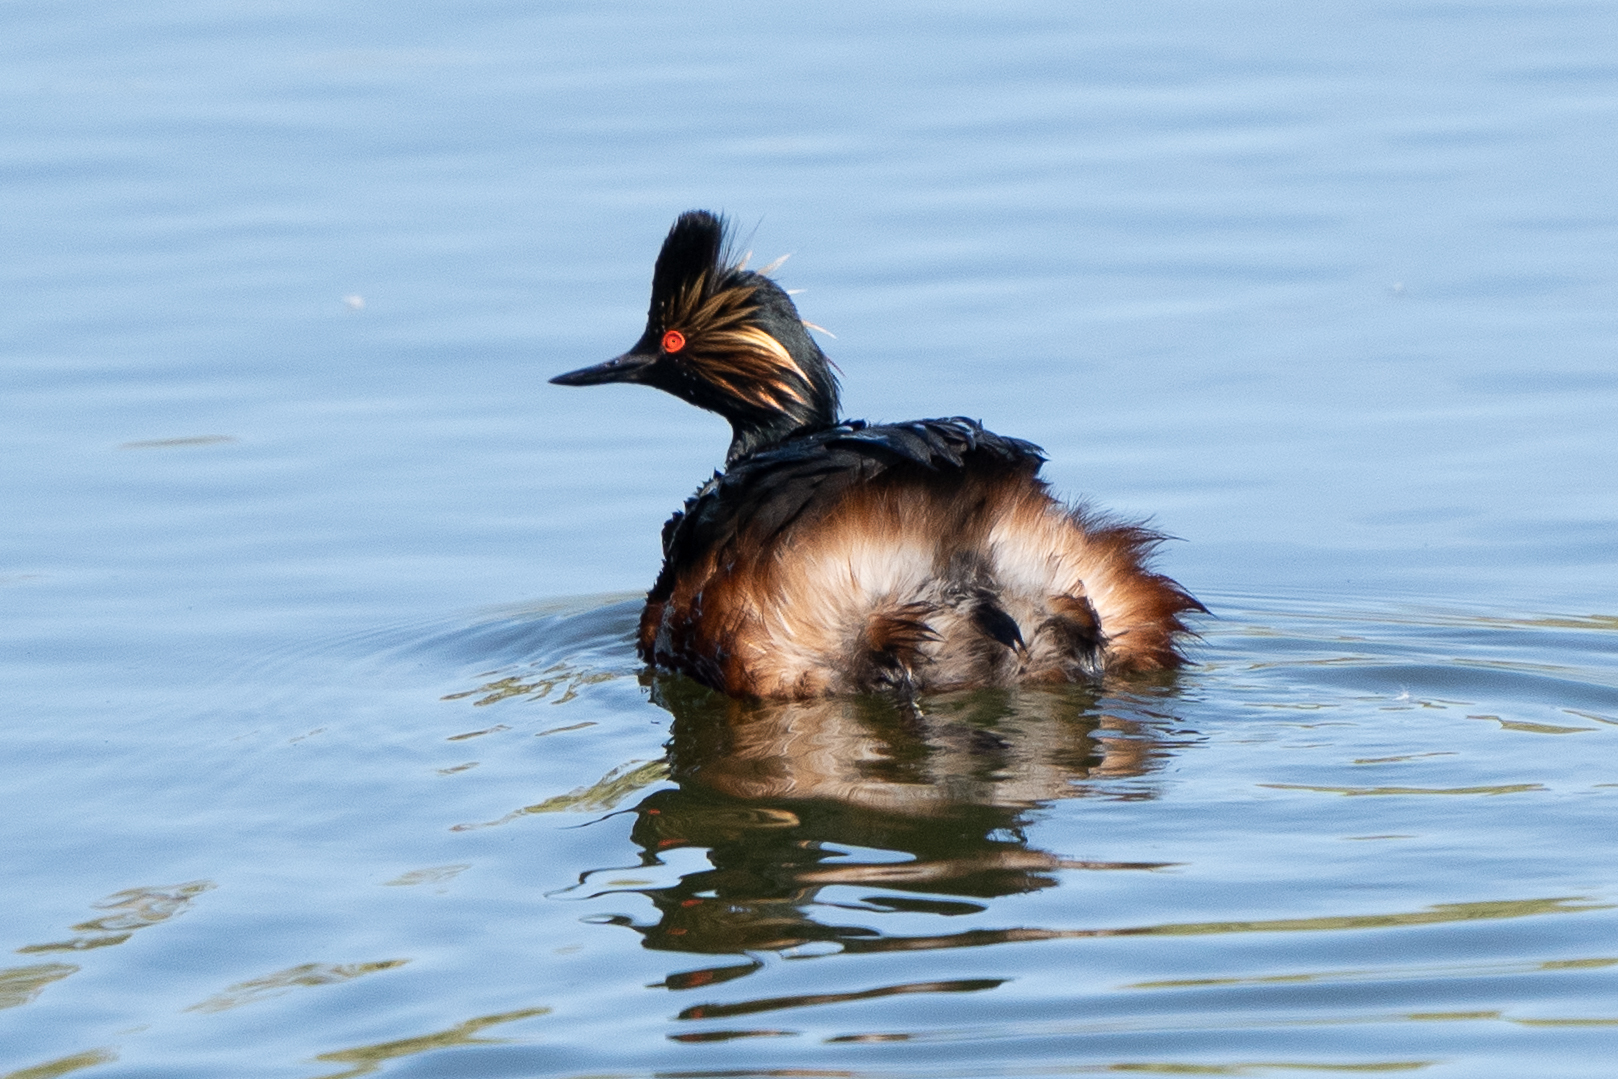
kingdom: Animalia
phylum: Chordata
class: Aves
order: Podicipediformes
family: Podicipedidae
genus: Podiceps
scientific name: Podiceps nigricollis
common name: Black-necked grebe
